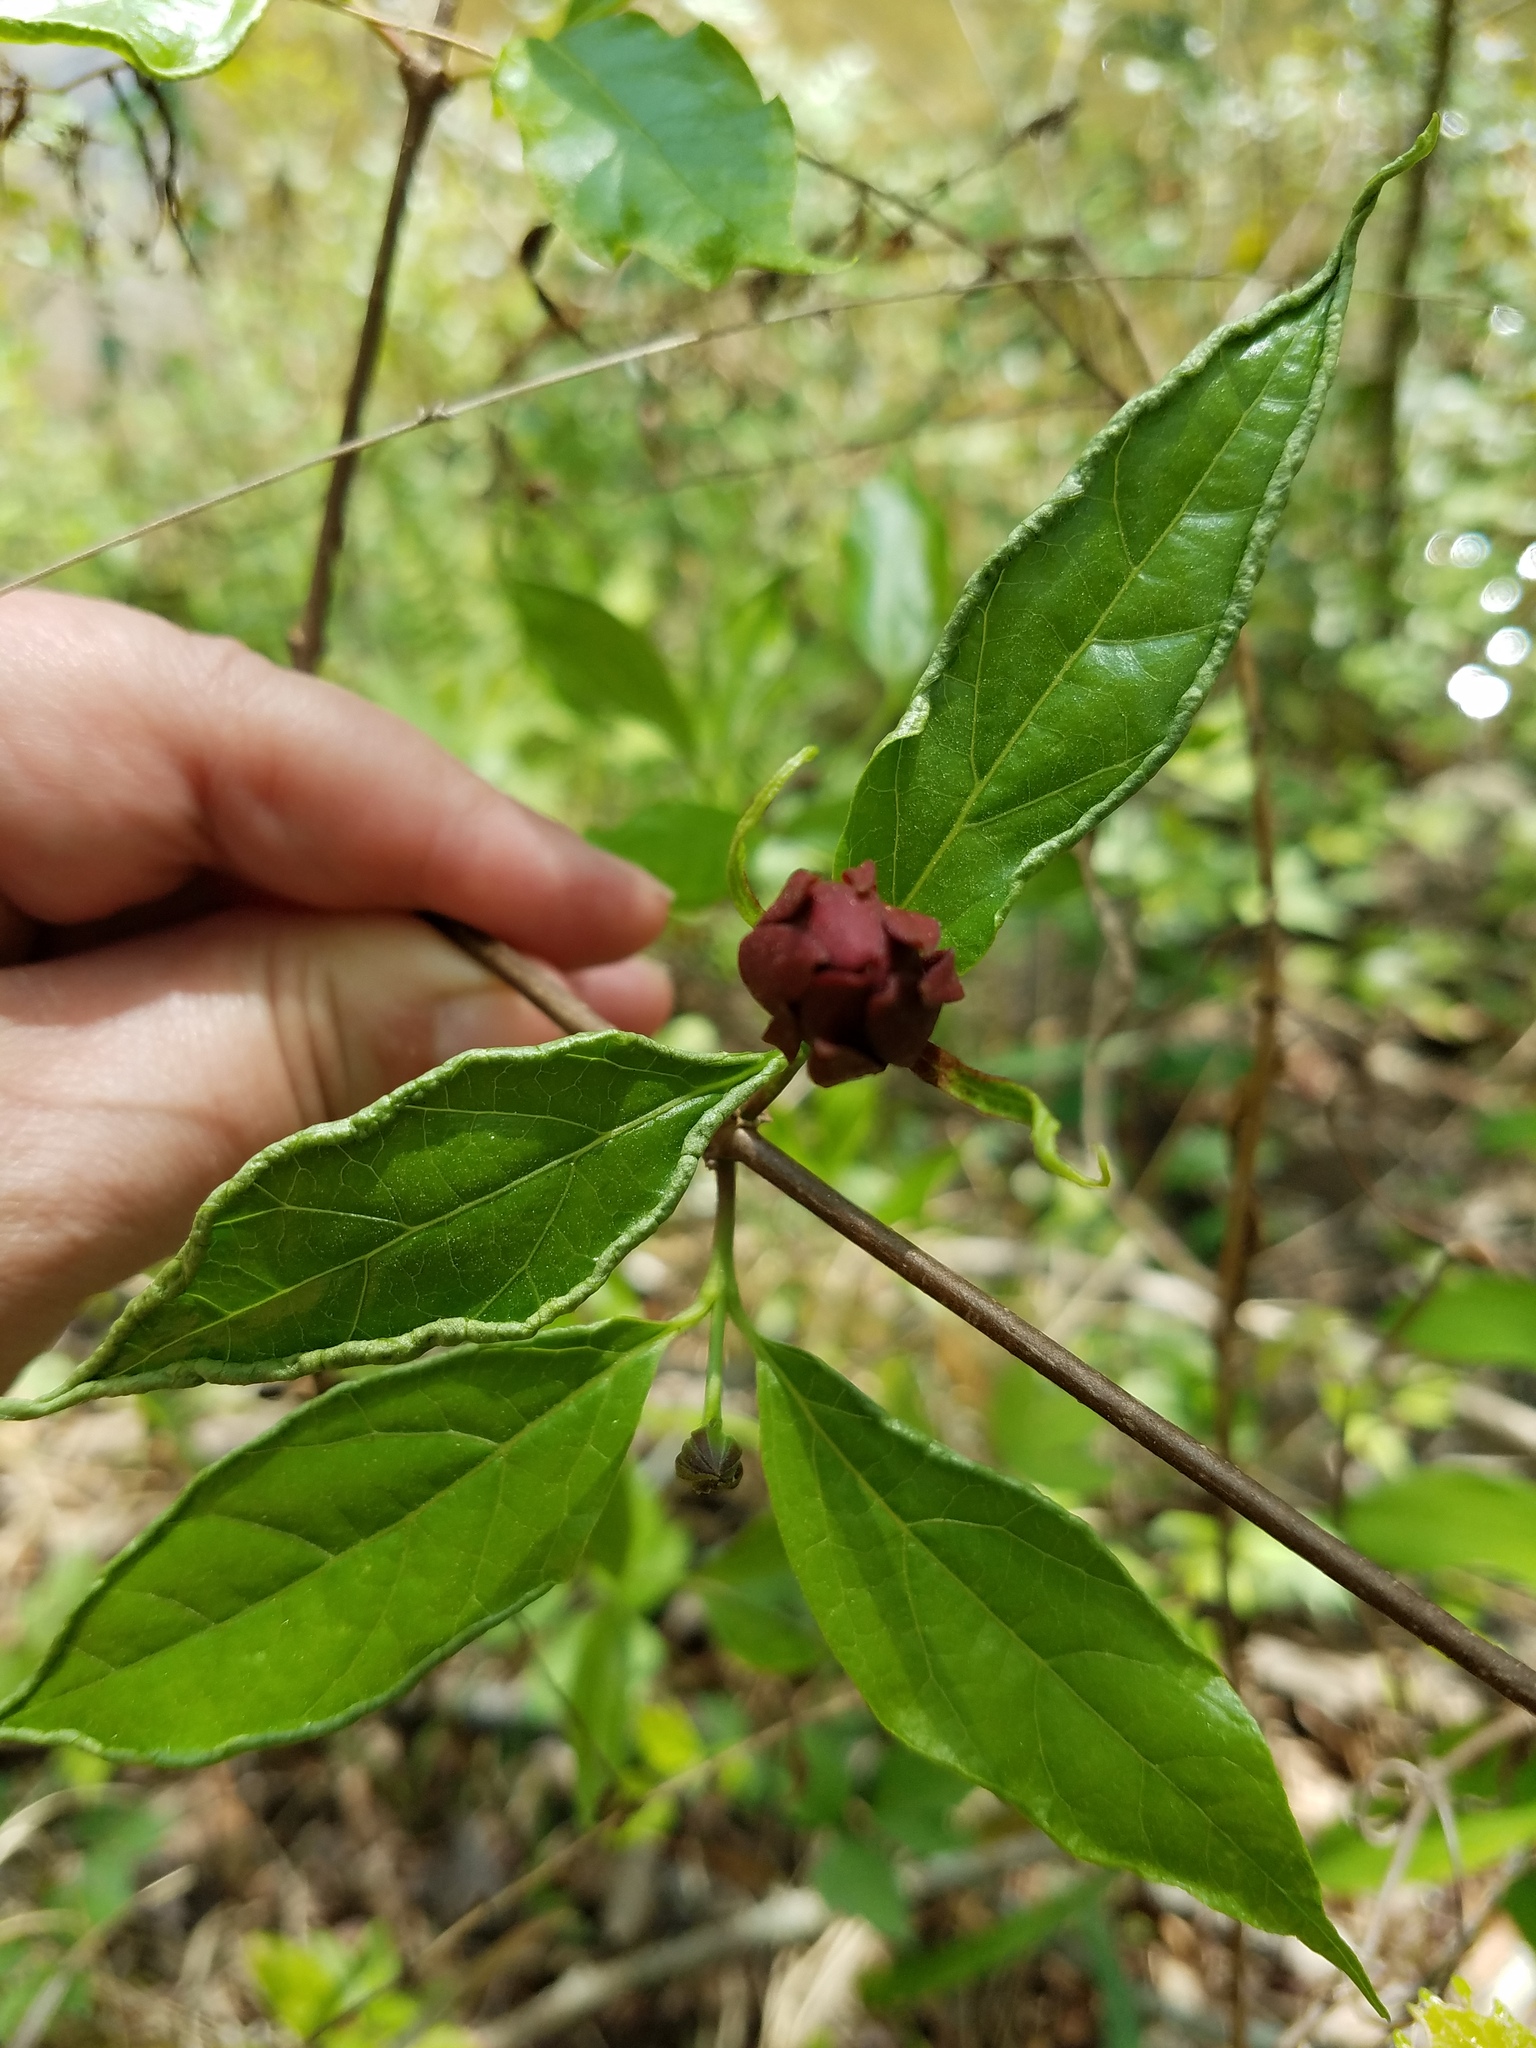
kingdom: Plantae
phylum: Tracheophyta
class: Magnoliopsida
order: Laurales
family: Calycanthaceae
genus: Calycanthus
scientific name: Calycanthus floridus
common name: Carolina-allspice
